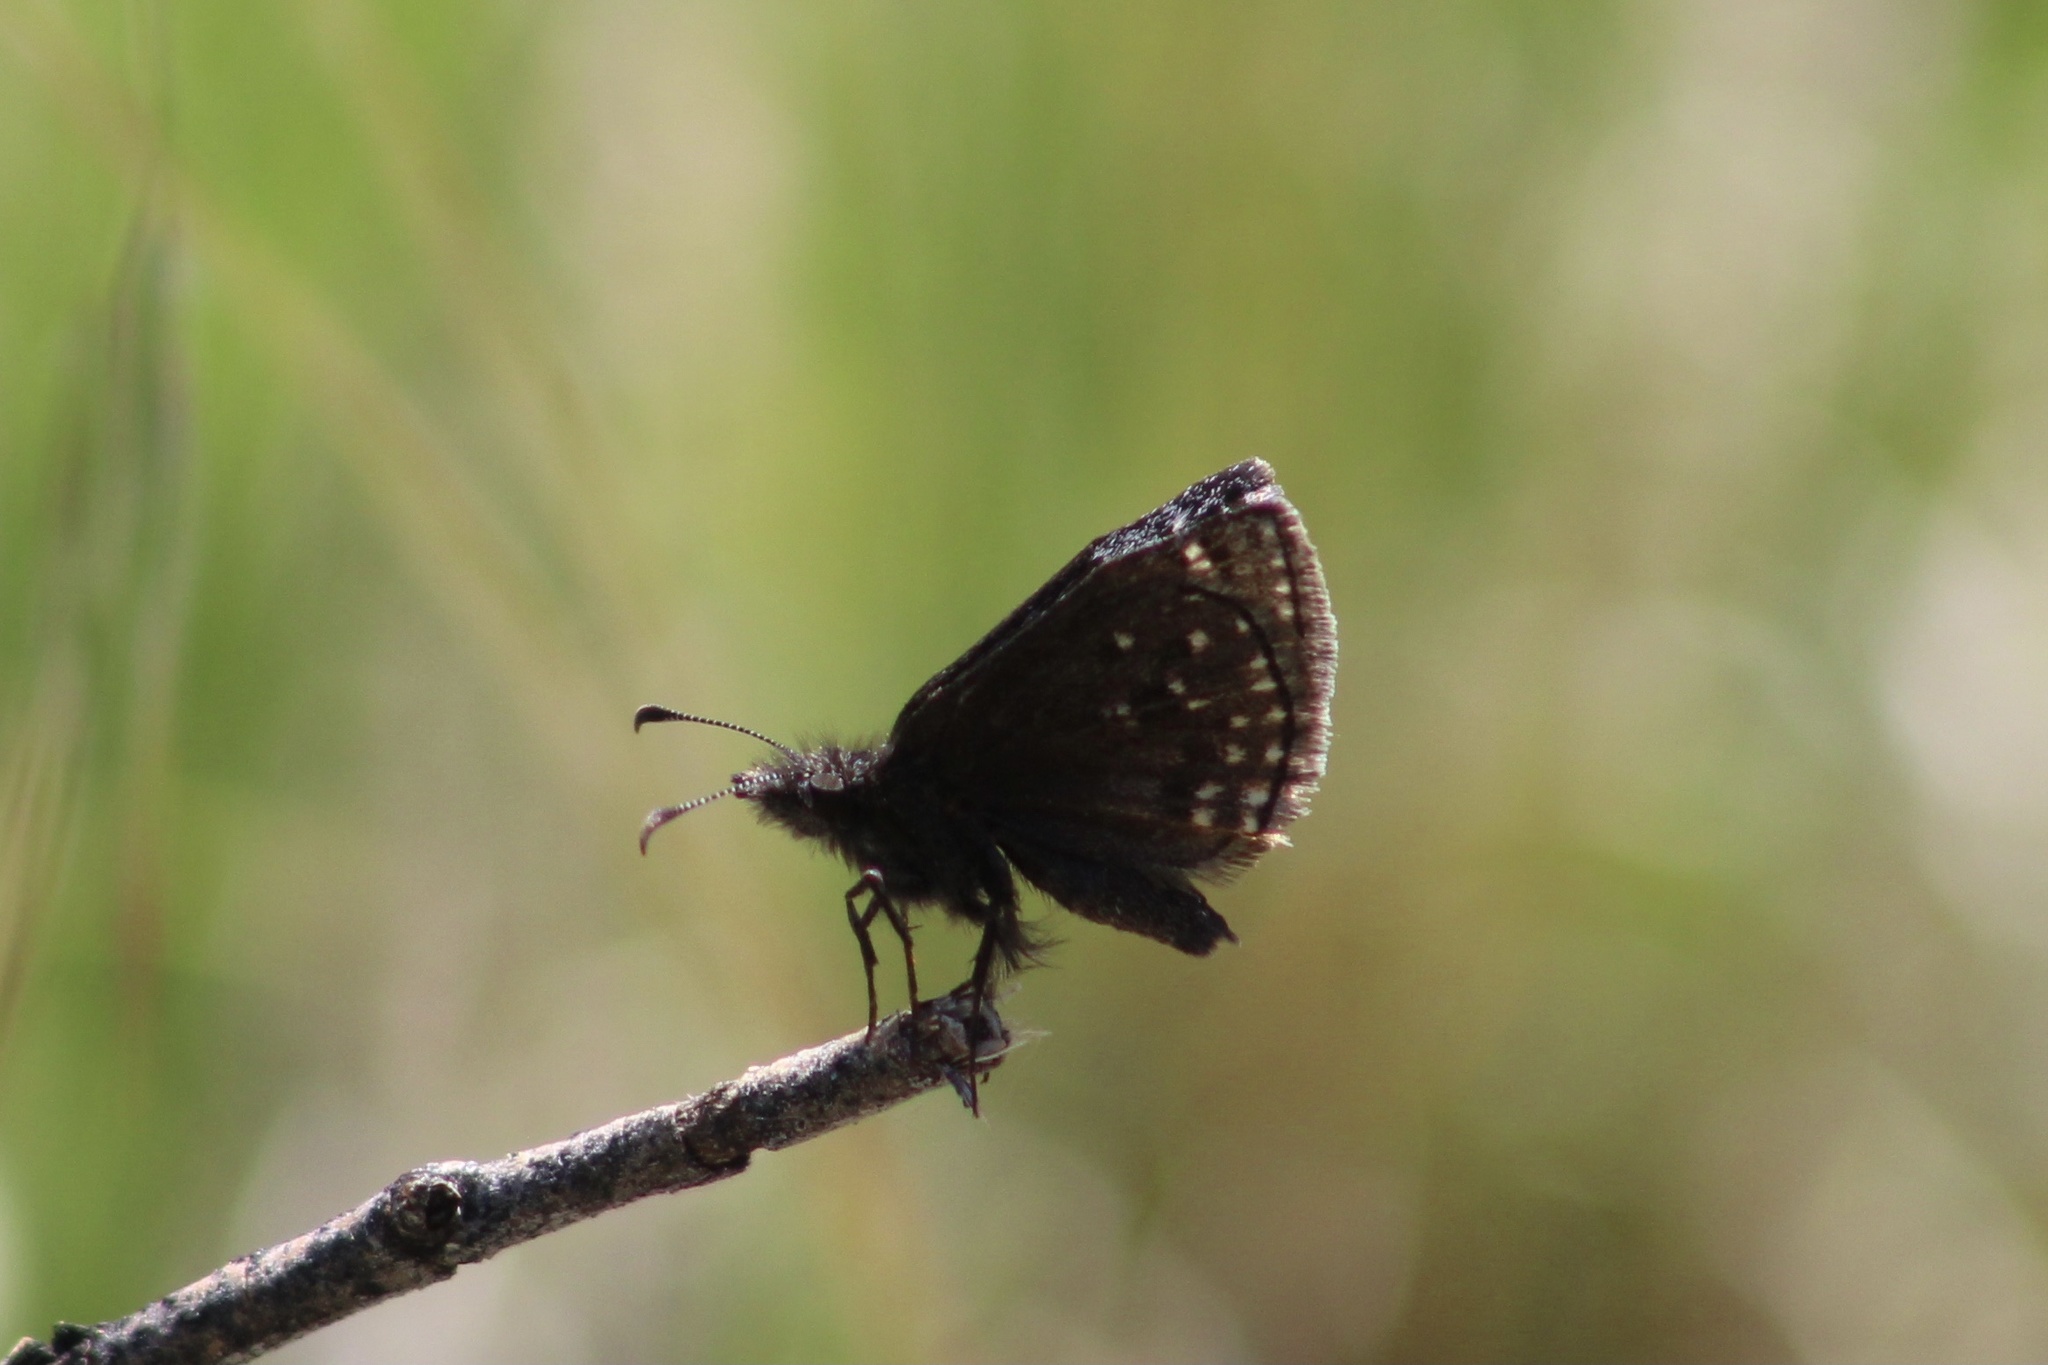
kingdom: Animalia
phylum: Arthropoda
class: Insecta
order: Lepidoptera
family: Hesperiidae
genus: Erynnis
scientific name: Erynnis icelus
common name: Dreamy duskywing
